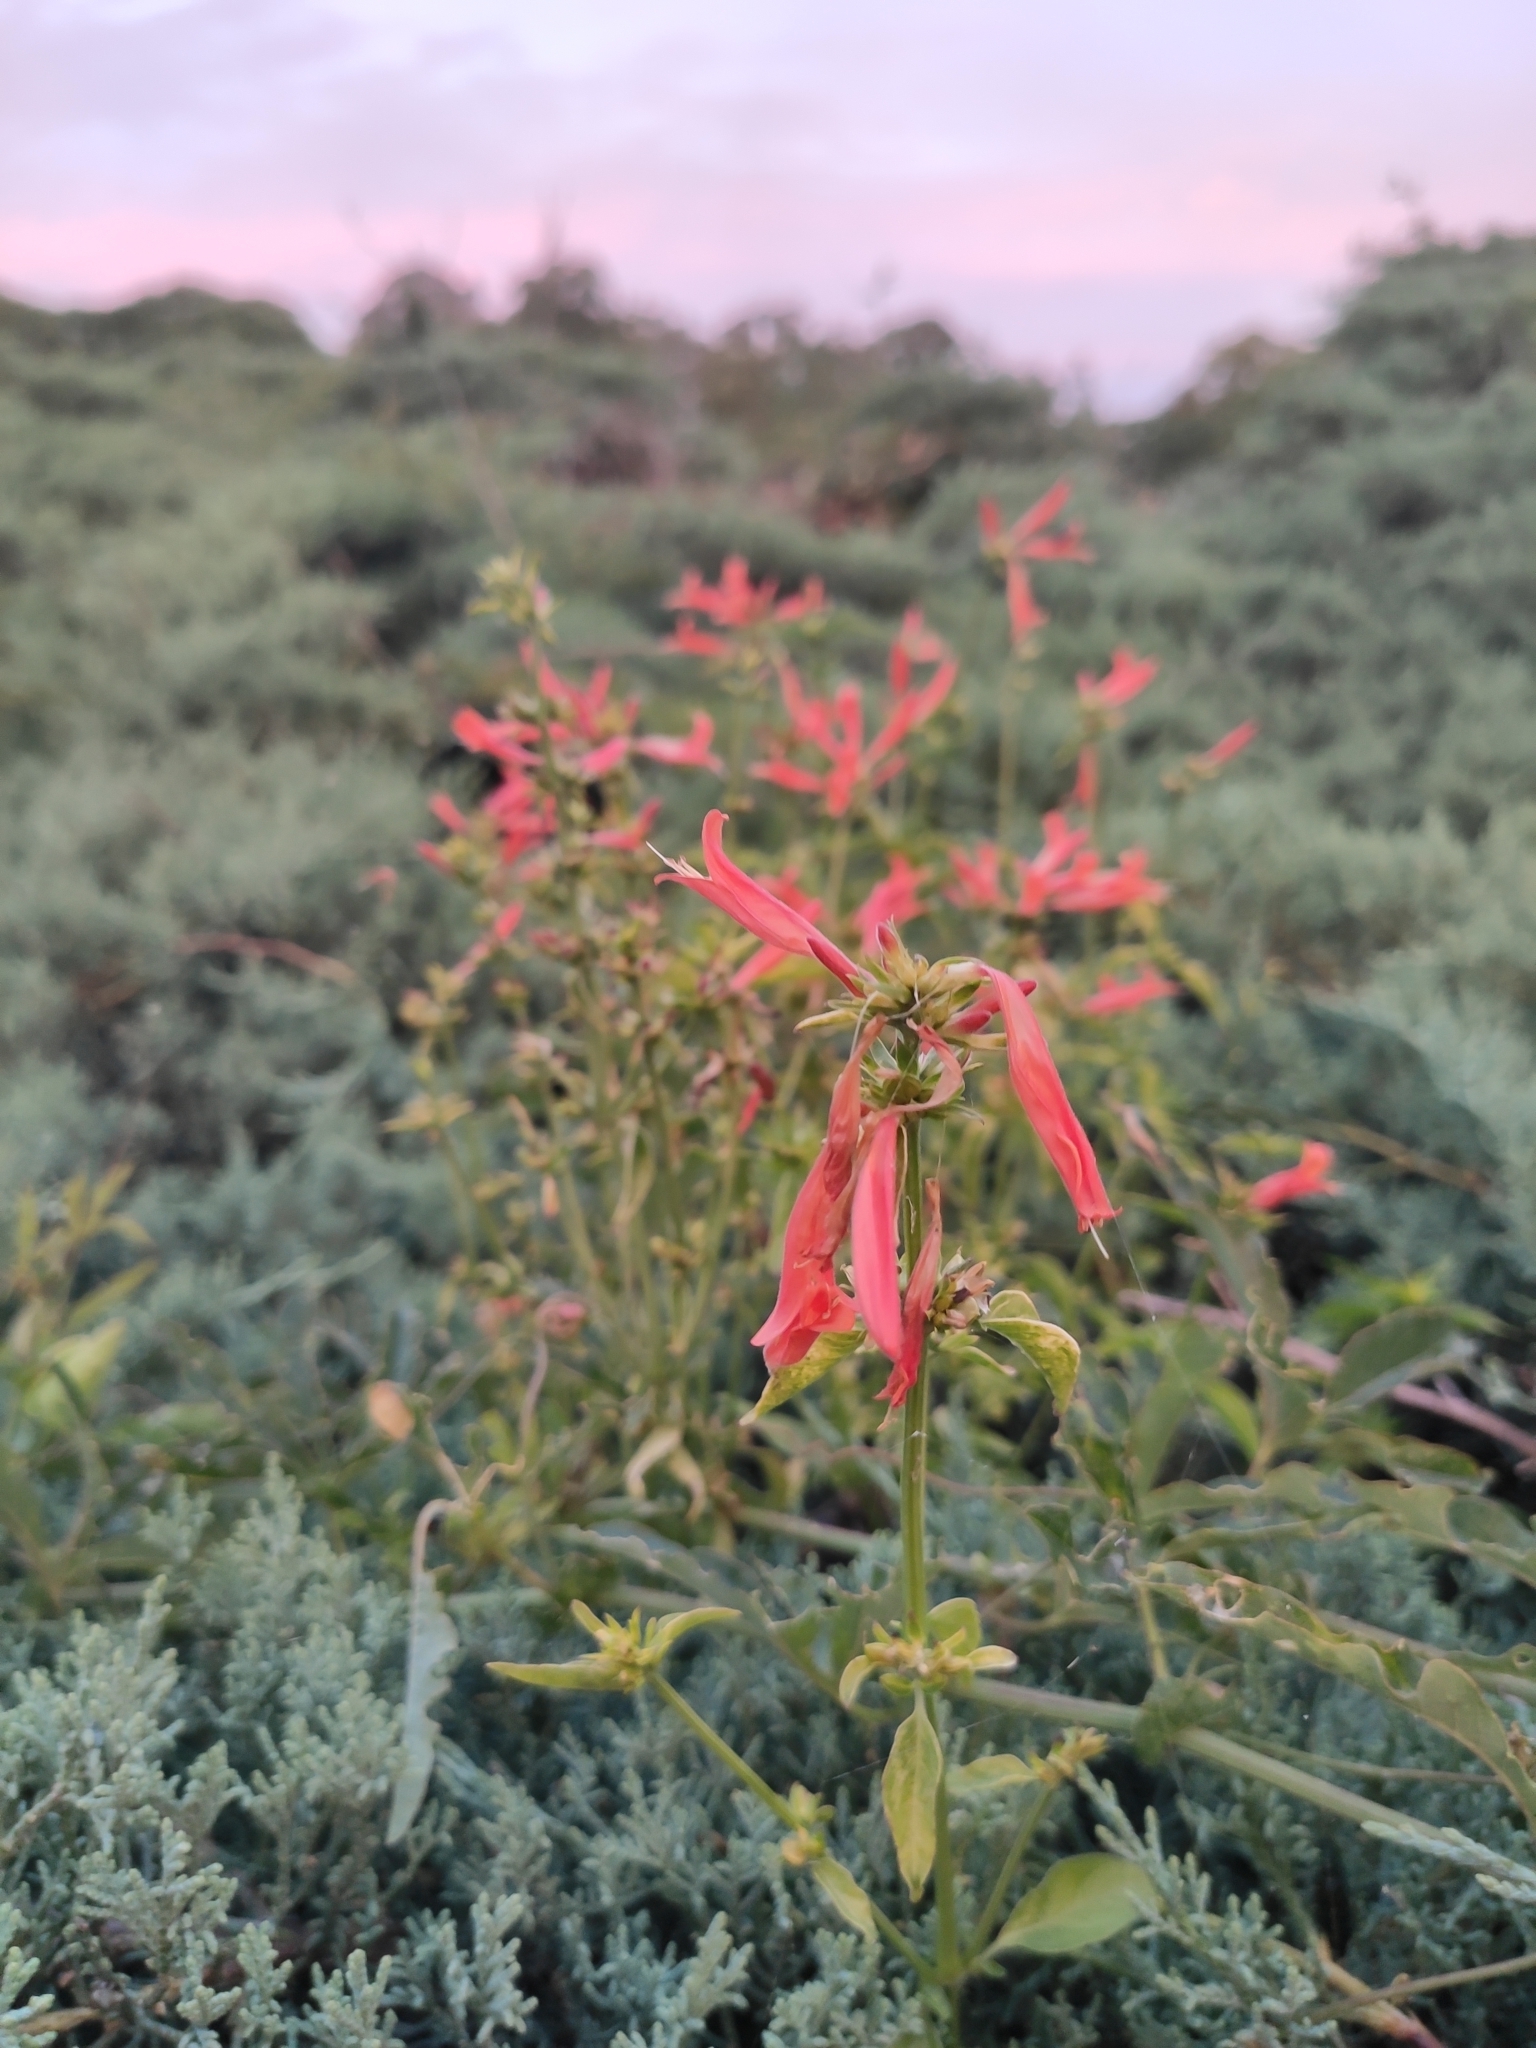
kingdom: Plantae
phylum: Tracheophyta
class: Magnoliopsida
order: Lamiales
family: Acanthaceae
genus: Dicliptera
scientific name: Dicliptera squarrosa
